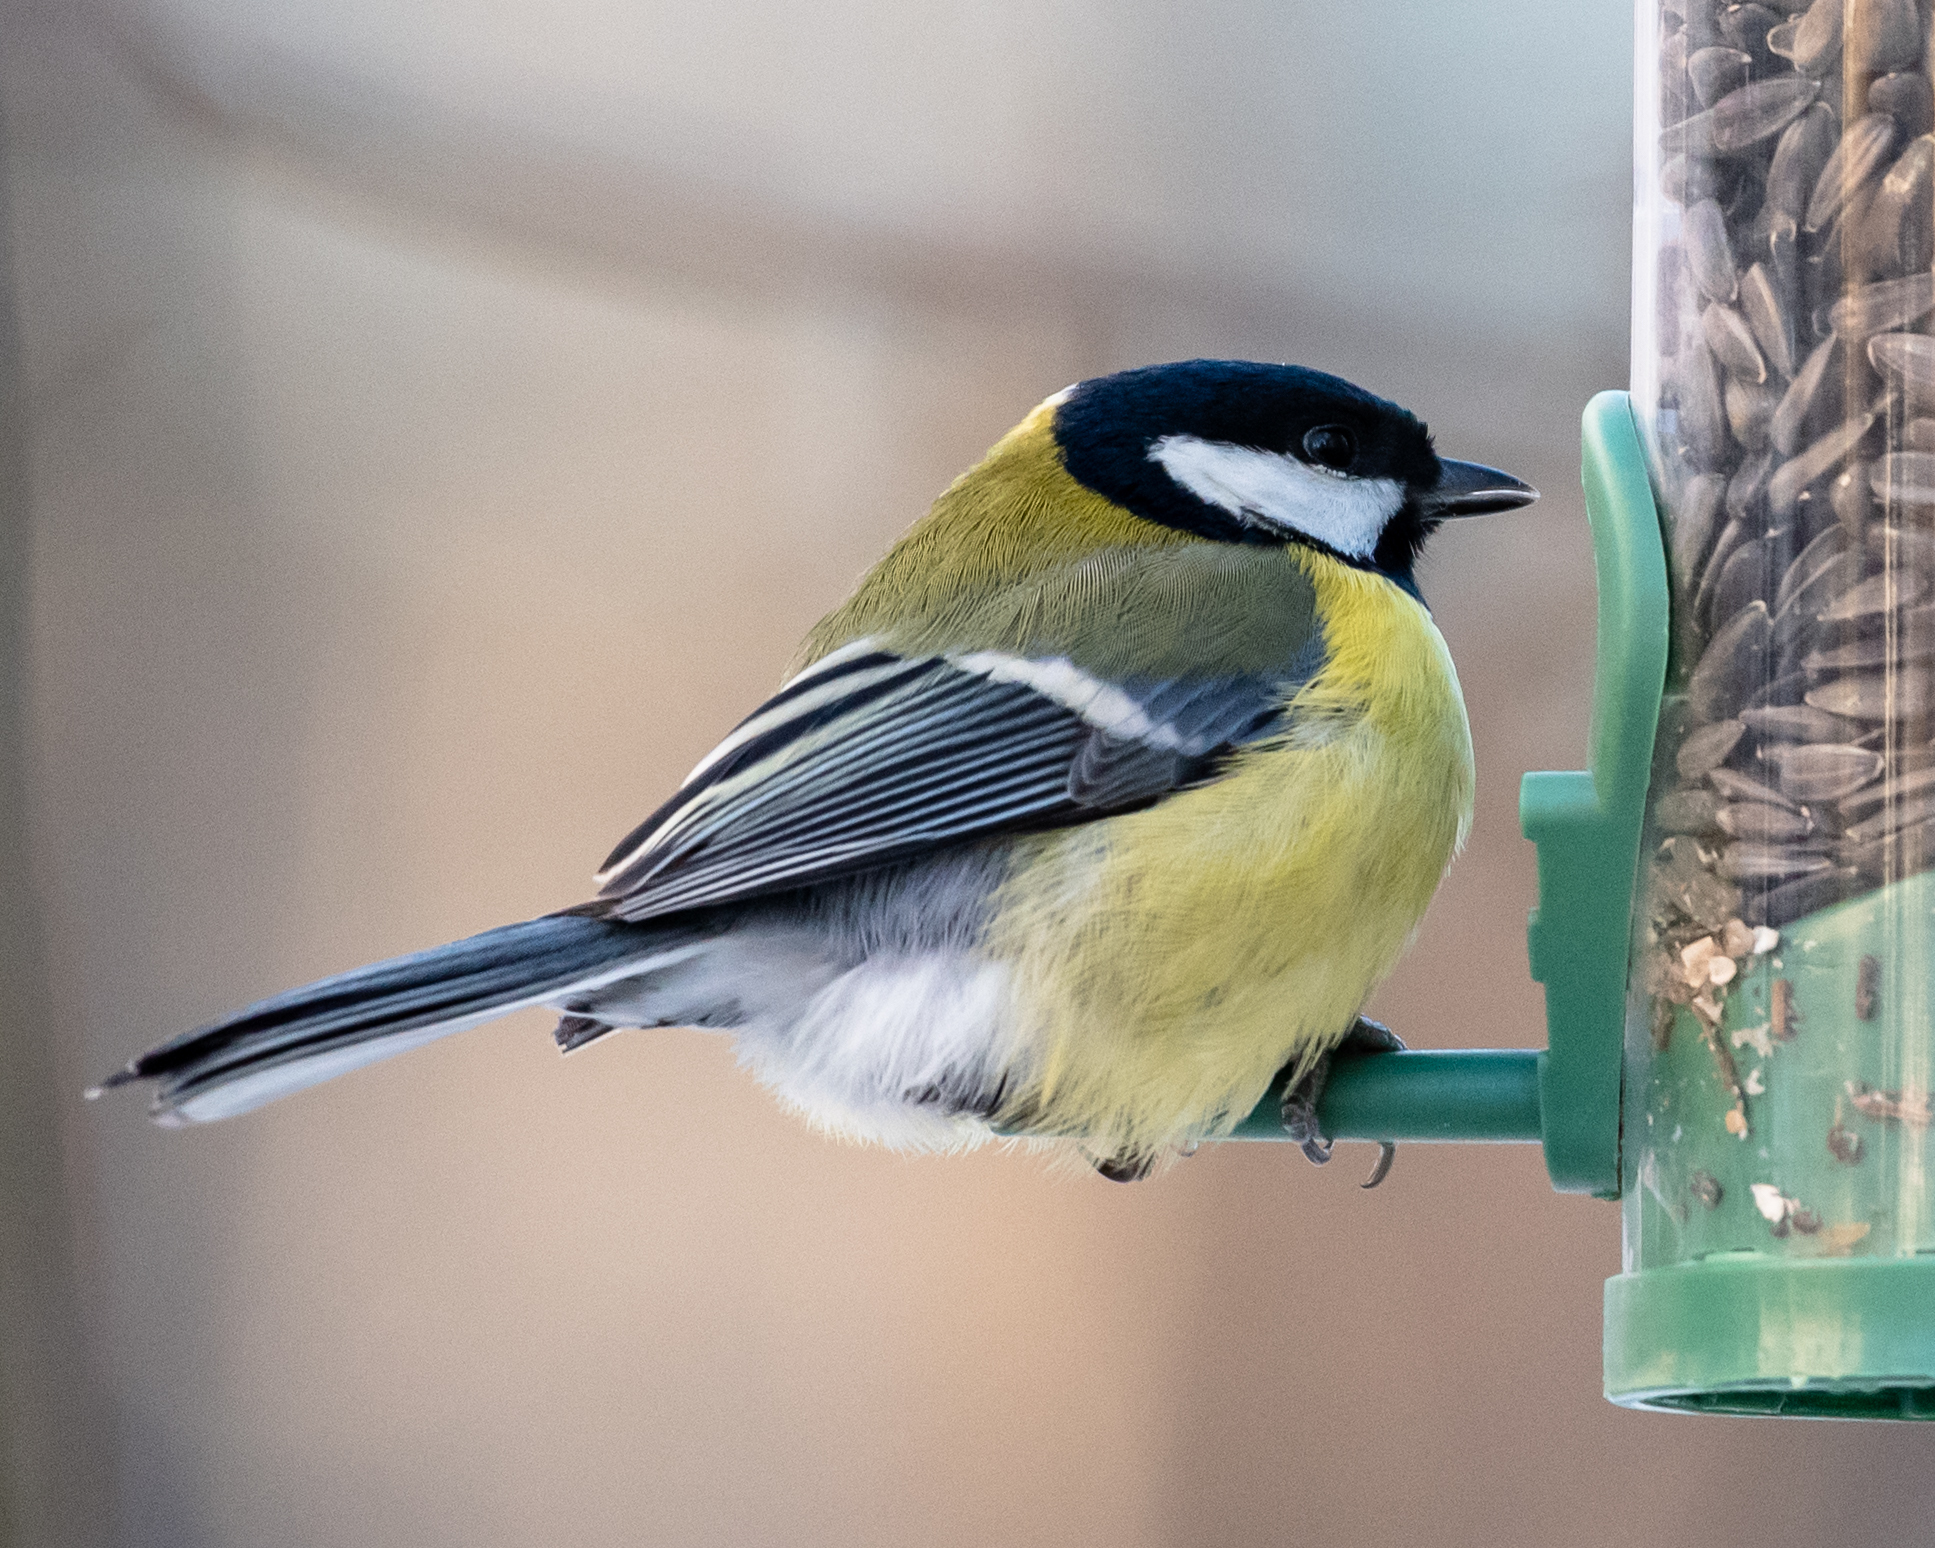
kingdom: Animalia
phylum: Chordata
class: Aves
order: Passeriformes
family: Paridae
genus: Parus
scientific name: Parus major
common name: Great tit
